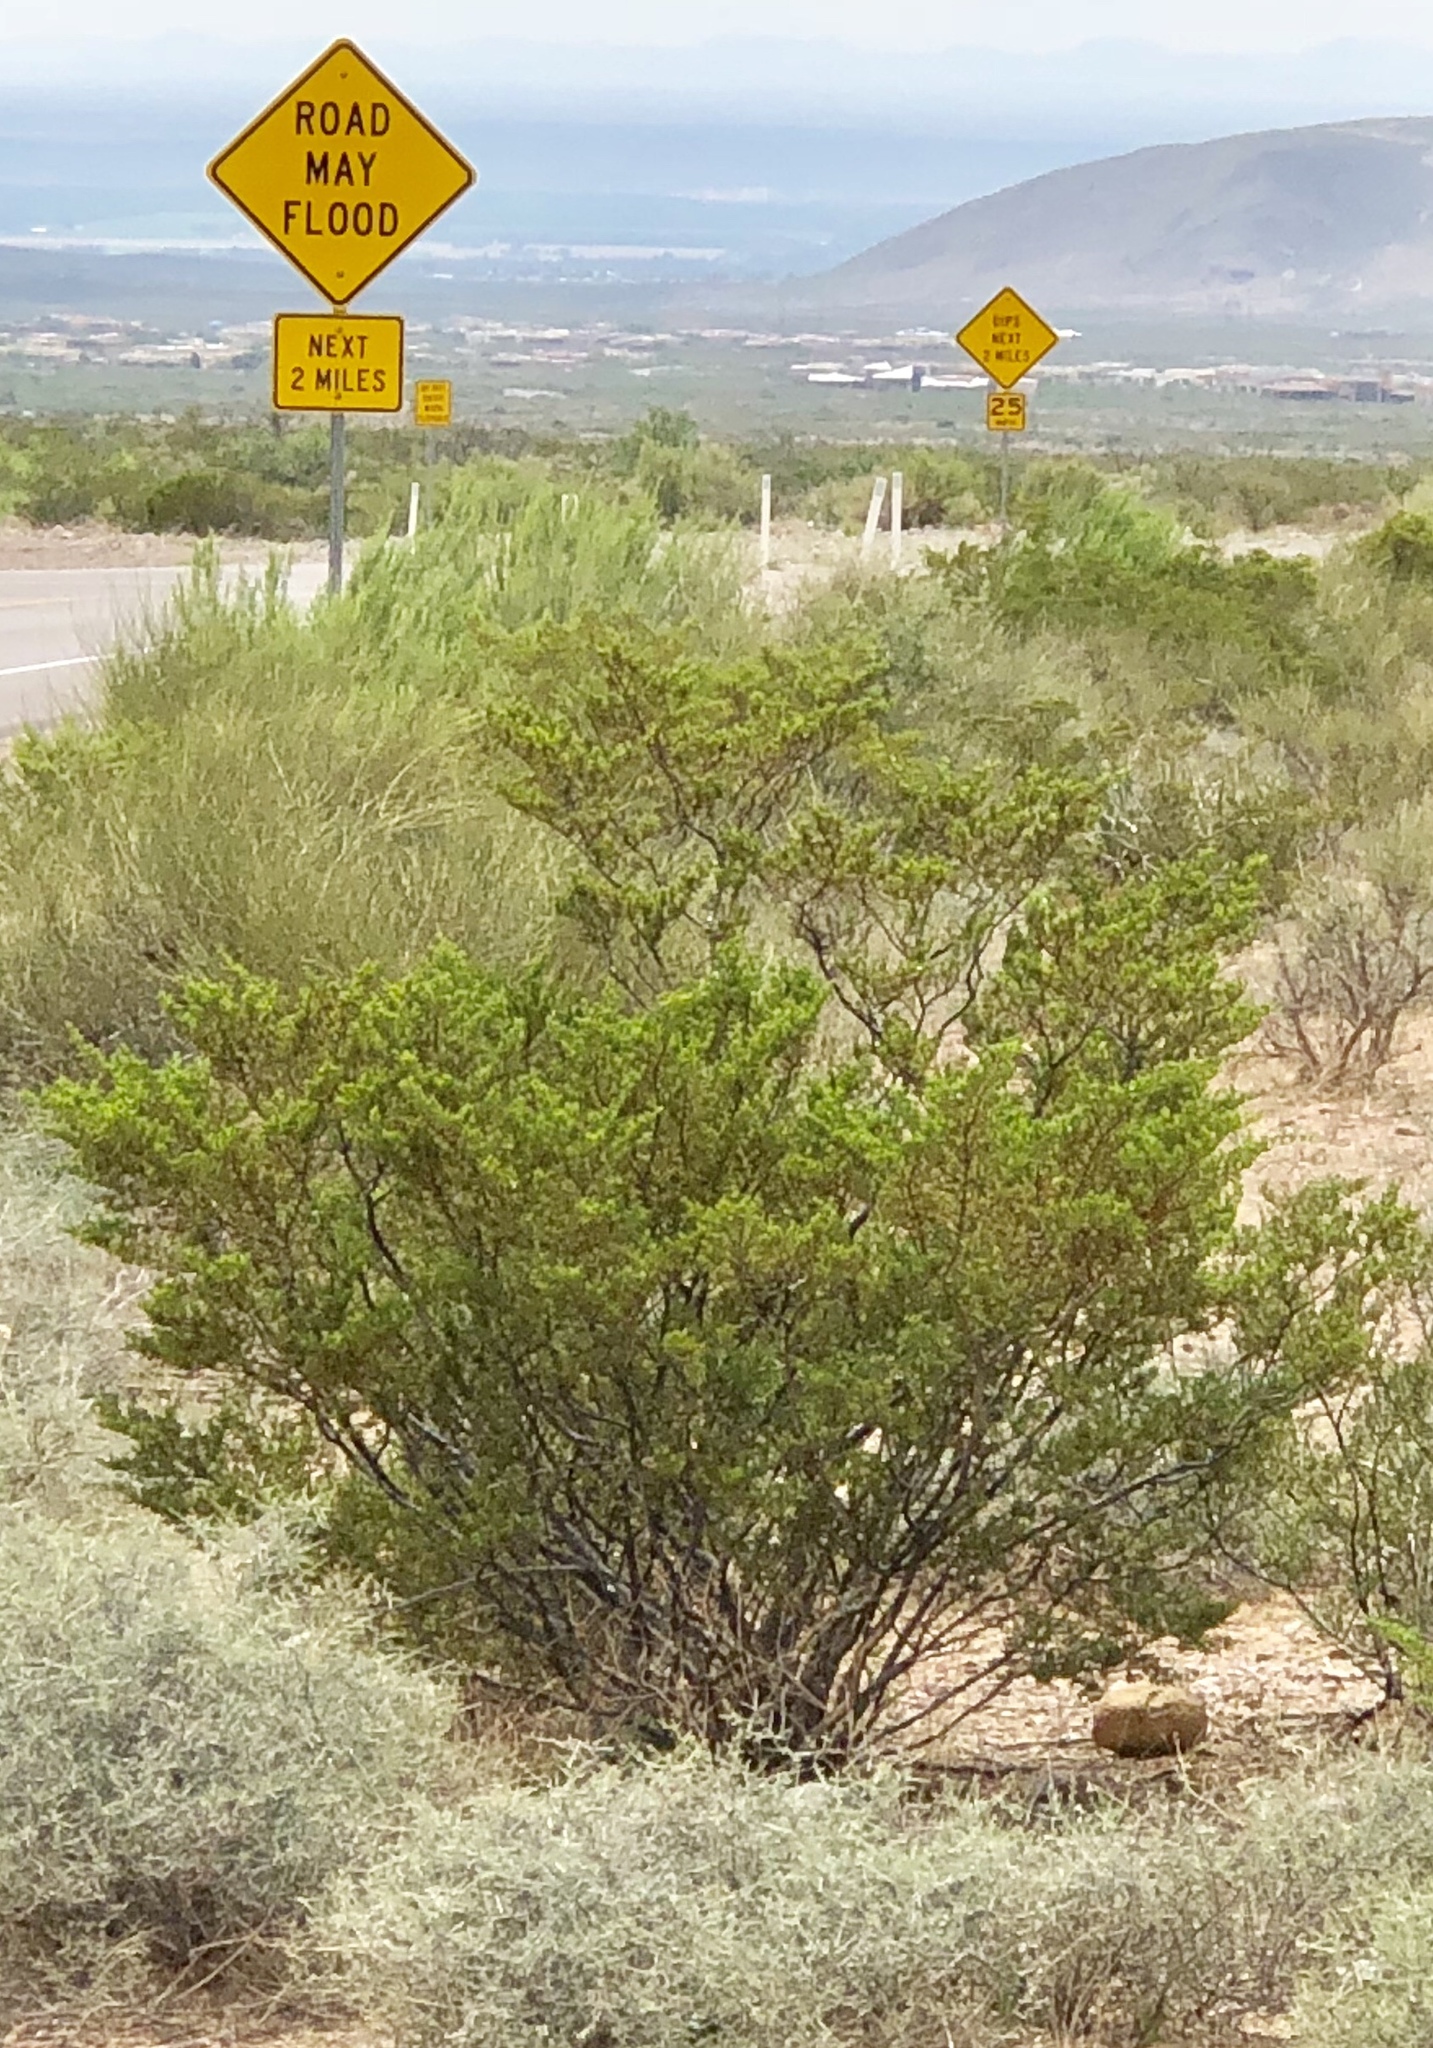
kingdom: Plantae
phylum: Tracheophyta
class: Magnoliopsida
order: Zygophyllales
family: Zygophyllaceae
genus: Larrea
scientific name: Larrea tridentata
